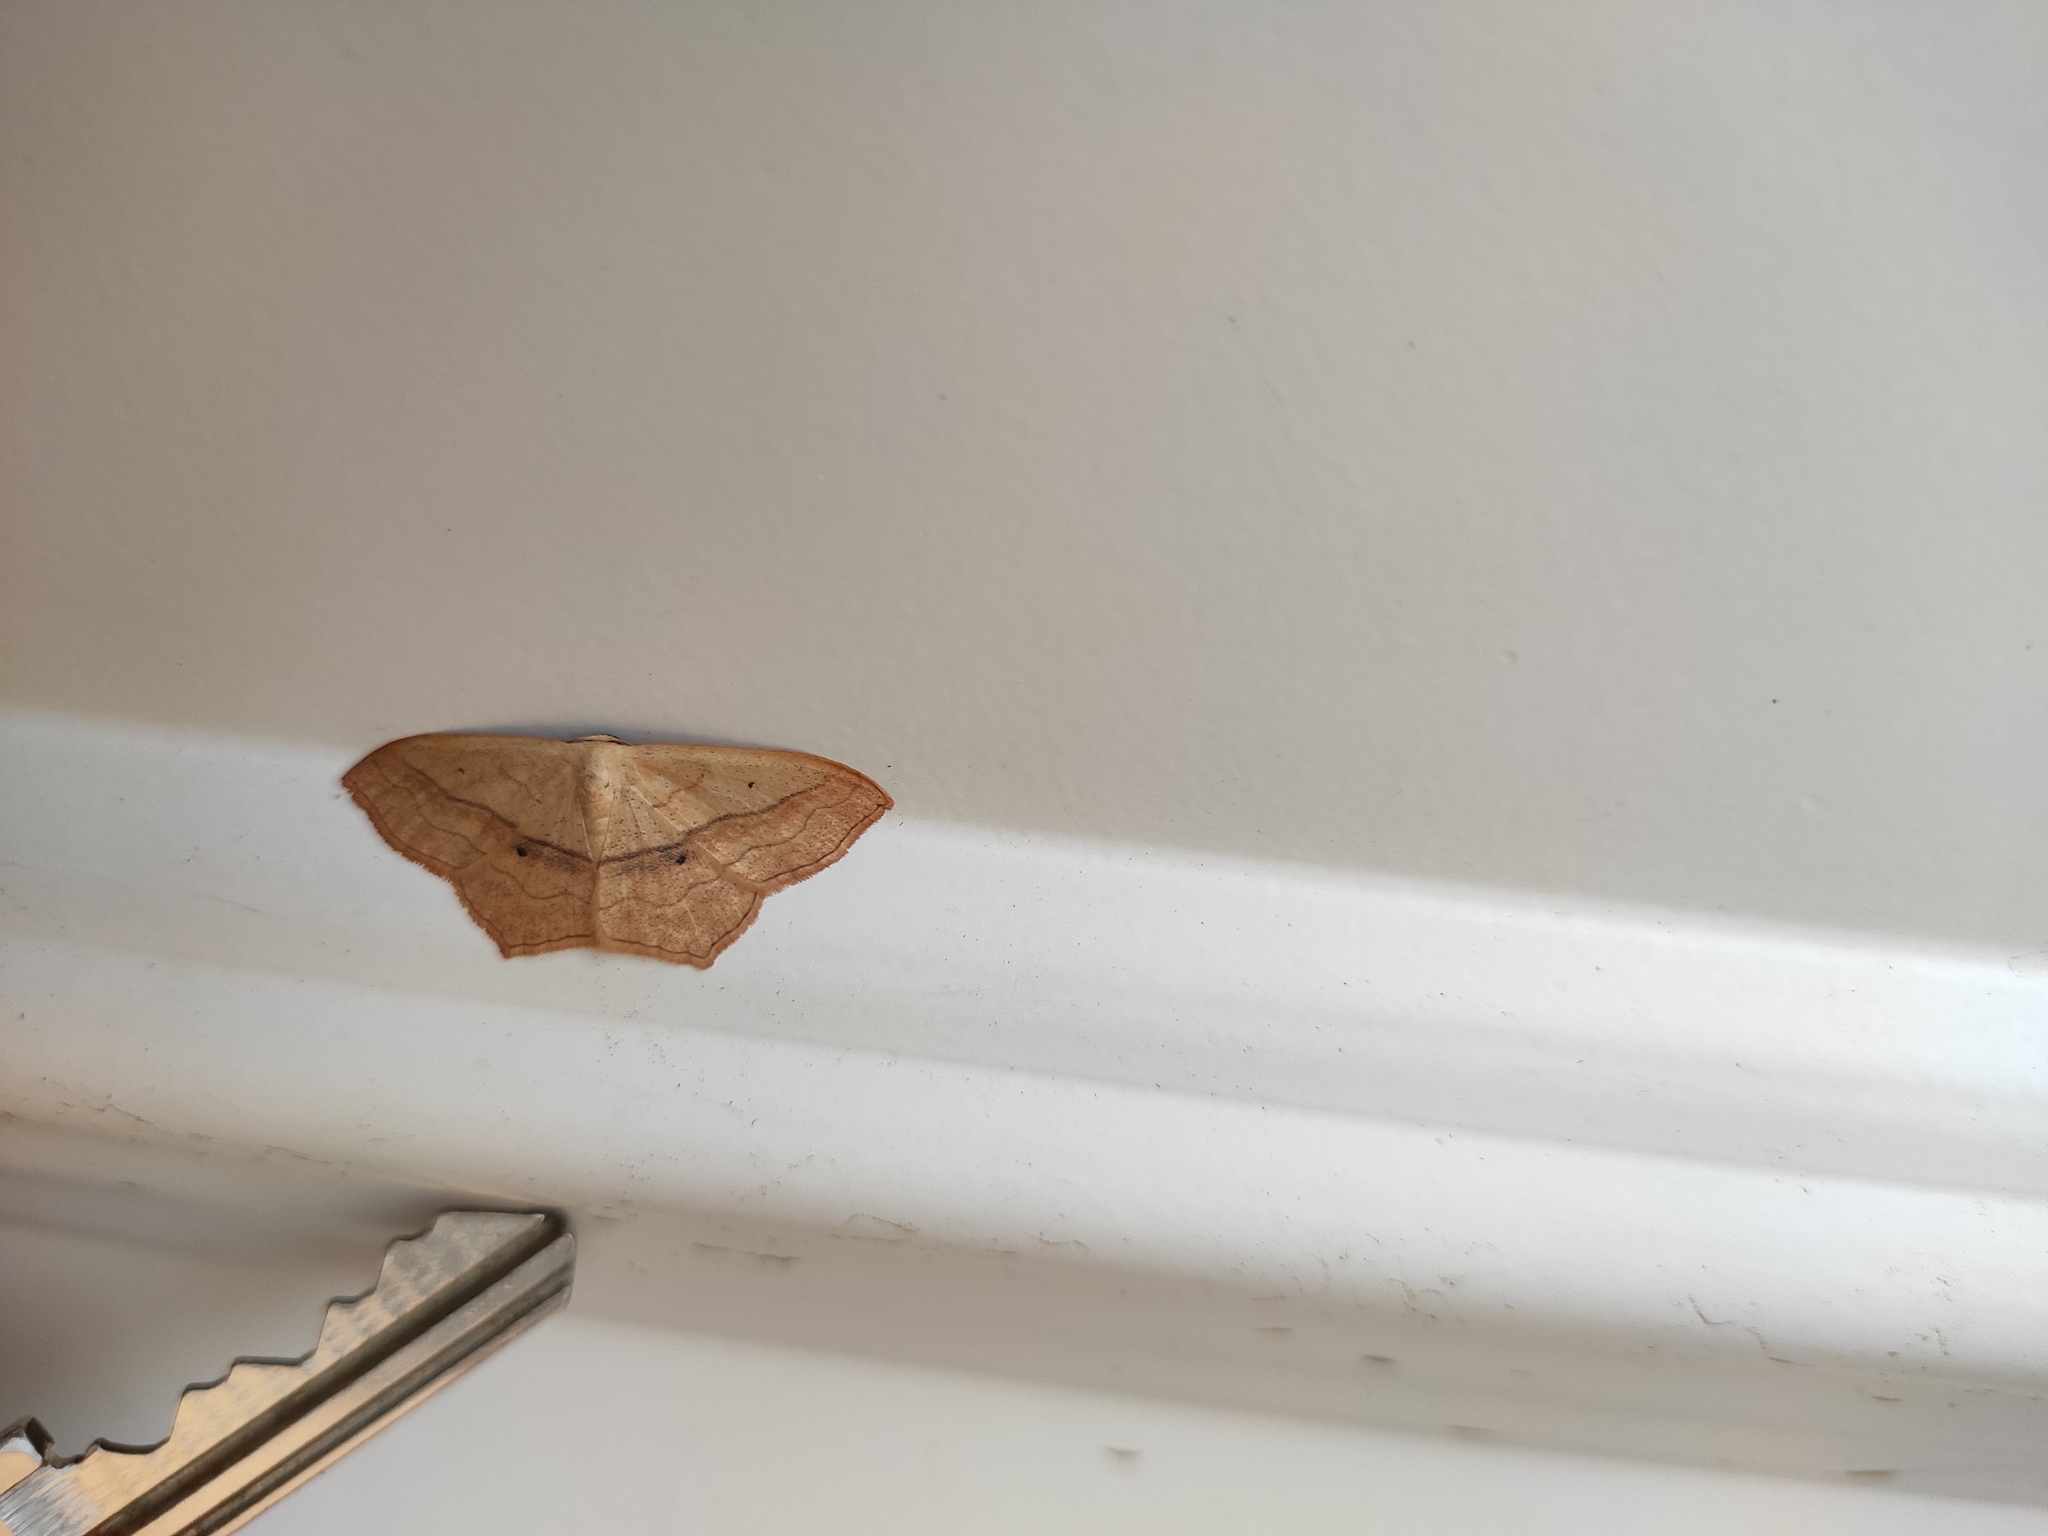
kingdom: Animalia
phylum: Arthropoda
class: Insecta
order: Lepidoptera
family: Geometridae
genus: Scopula
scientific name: Scopula imitaria
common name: Small blood-vein
